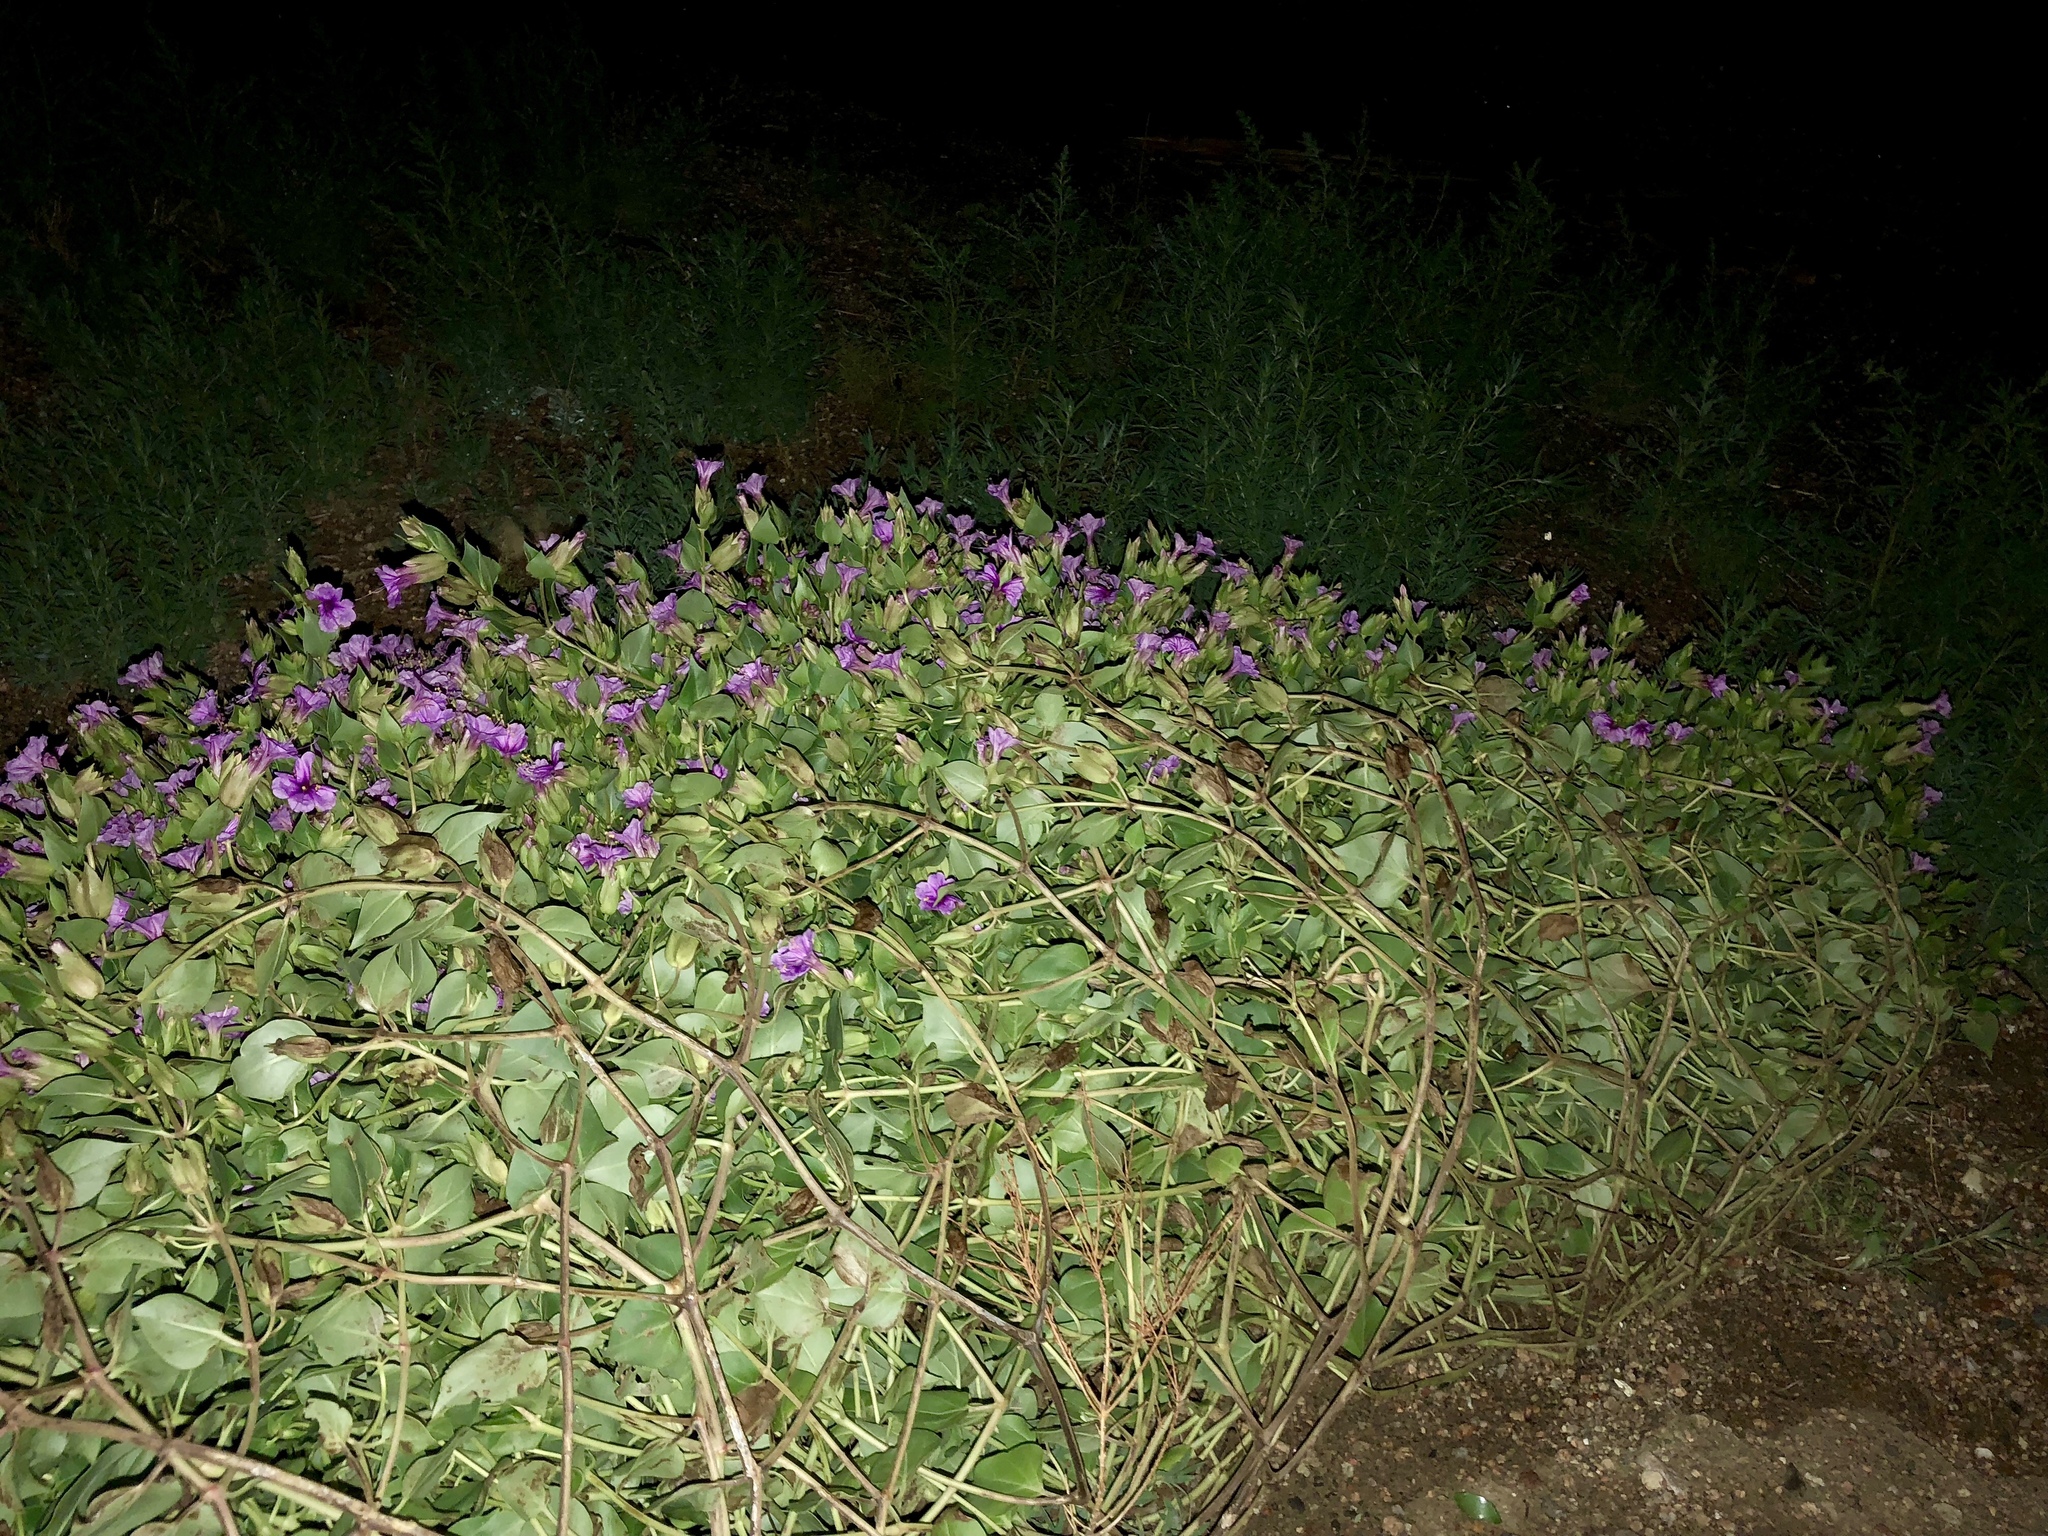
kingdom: Plantae
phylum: Tracheophyta
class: Magnoliopsida
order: Caryophyllales
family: Nyctaginaceae
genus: Mirabilis
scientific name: Mirabilis multiflora
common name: Froebel's four-o'clock
